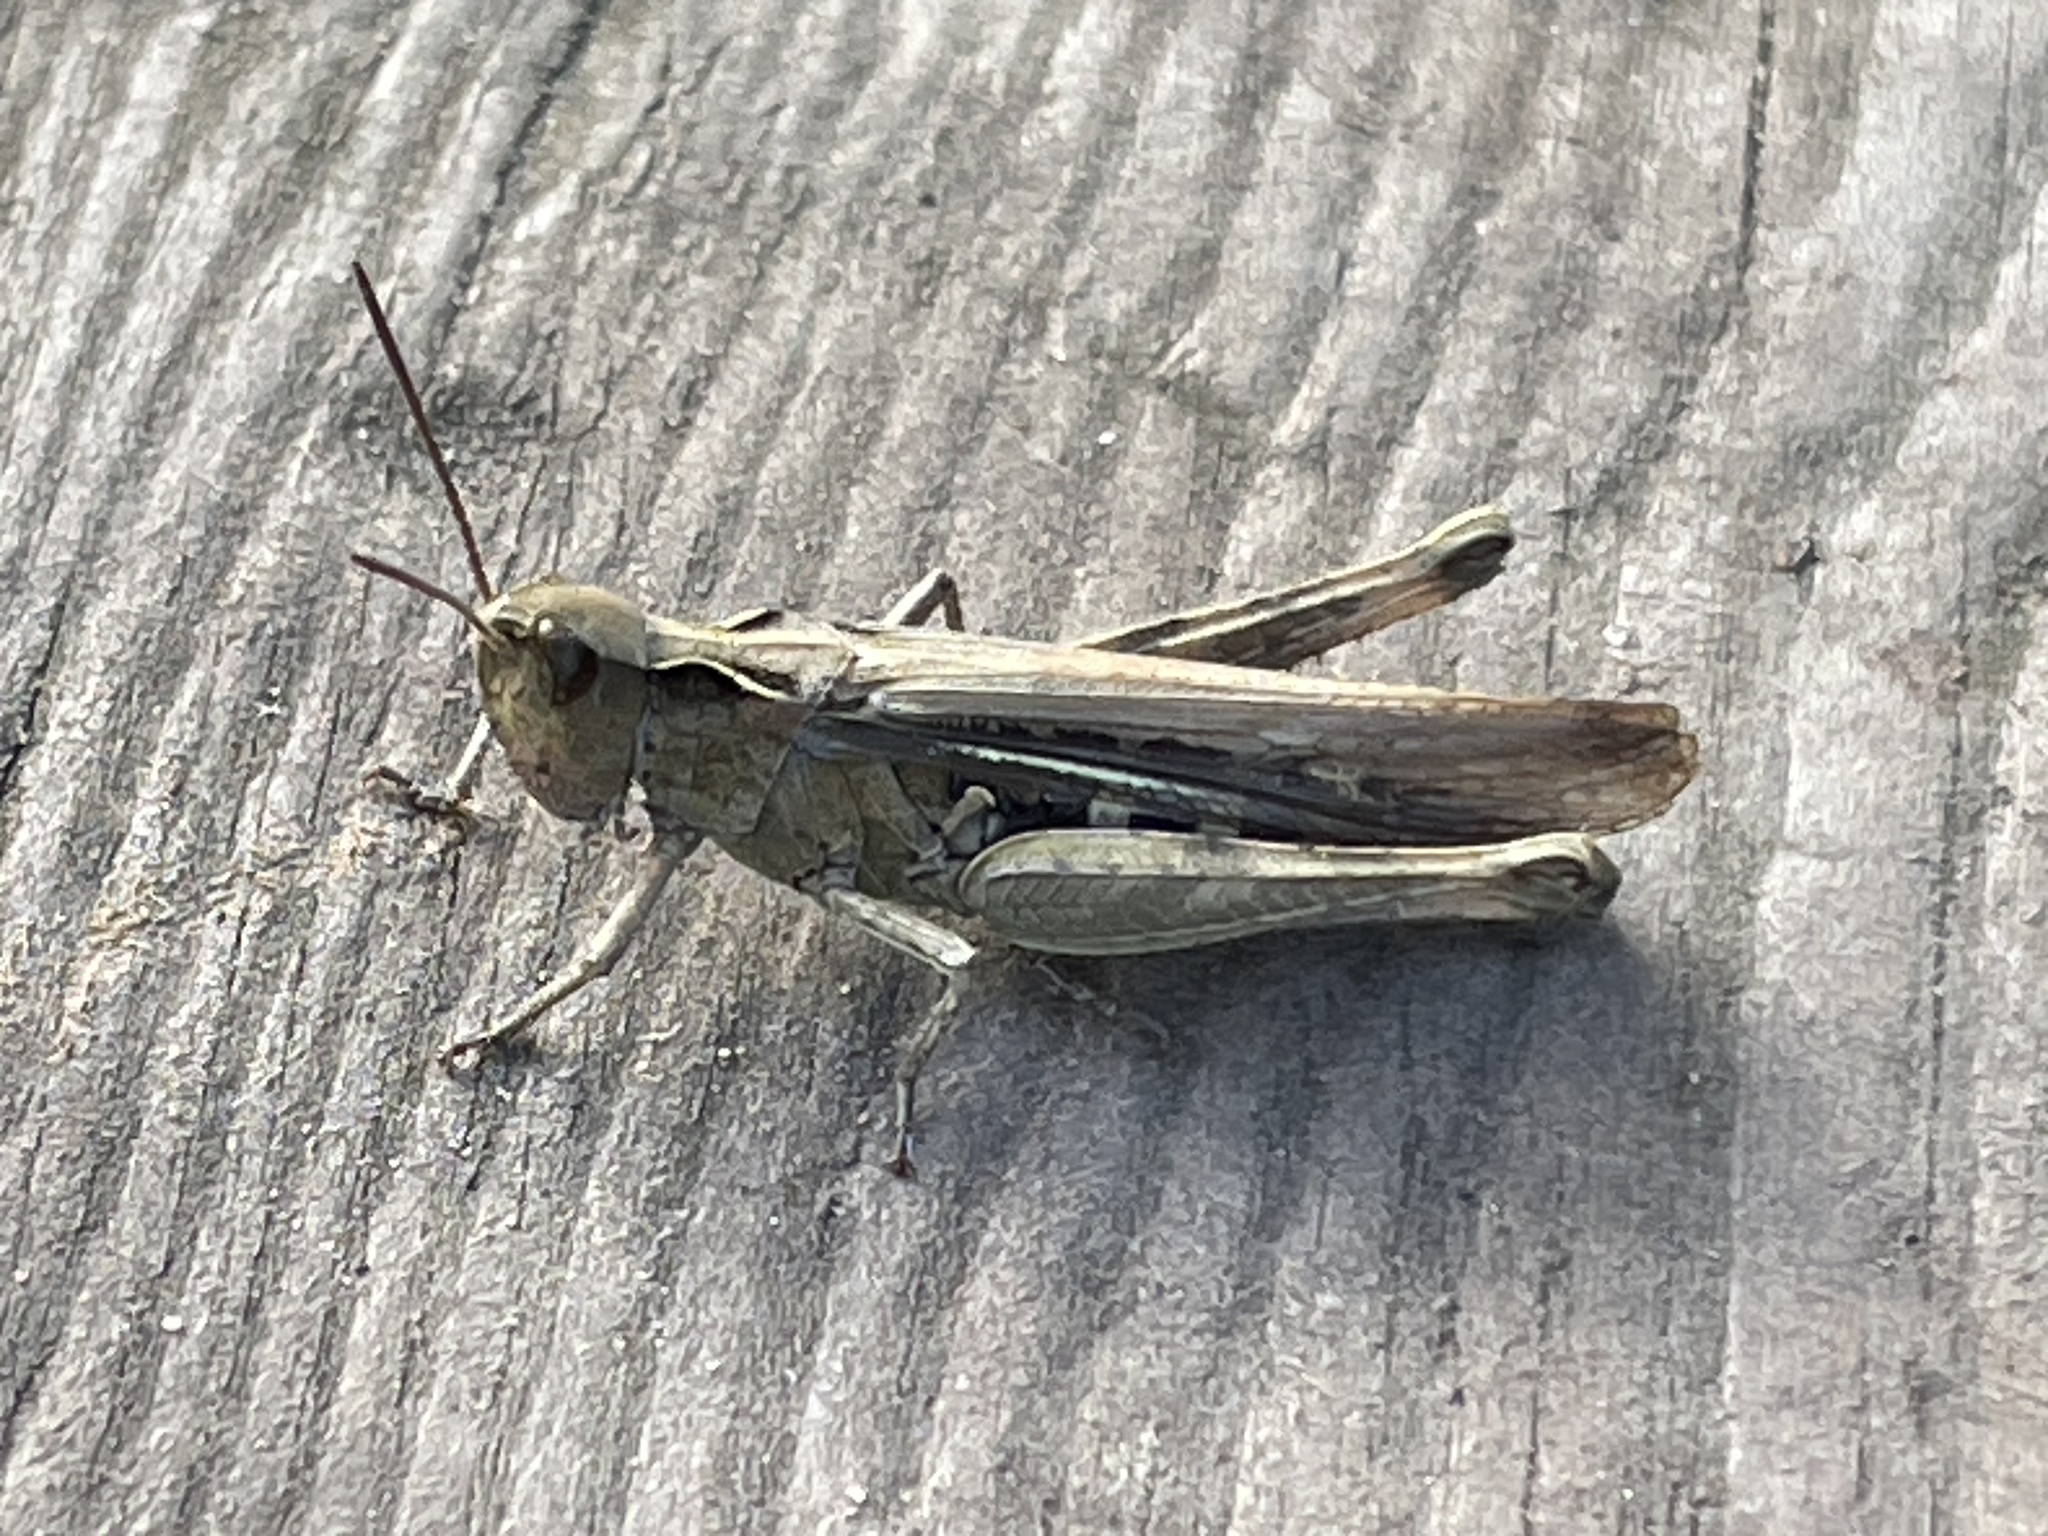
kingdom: Animalia
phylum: Arthropoda
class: Insecta
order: Orthoptera
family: Acrididae
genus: Chorthippus
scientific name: Chorthippus brunneus
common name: Field grasshopper
